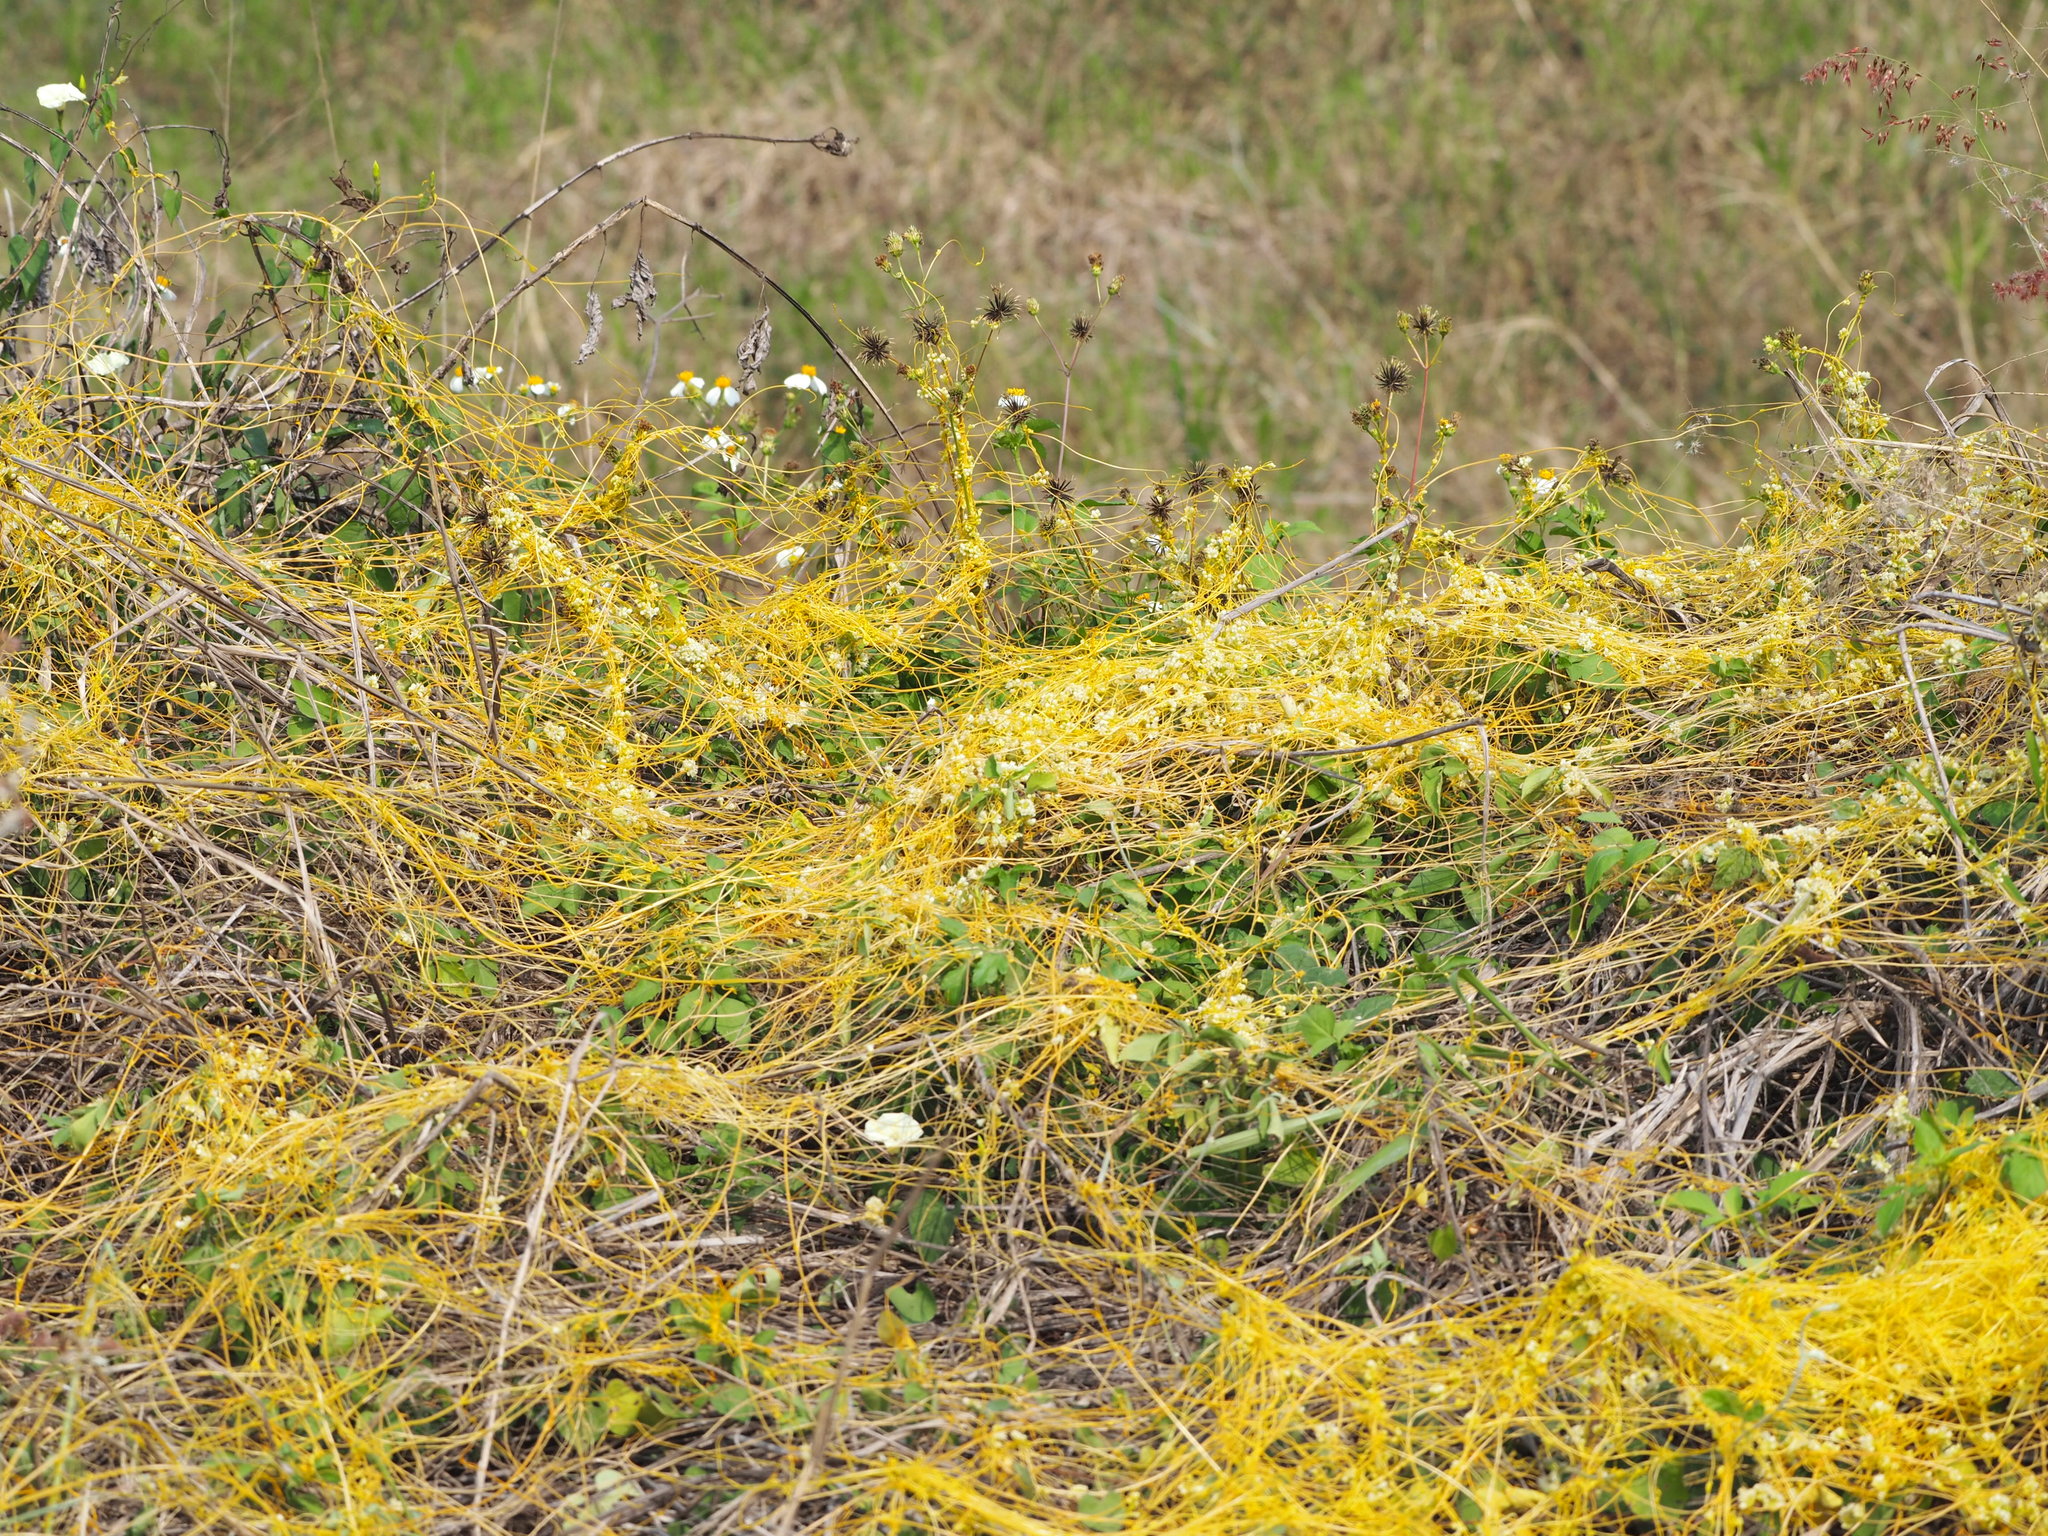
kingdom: Plantae
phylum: Tracheophyta
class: Magnoliopsida
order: Solanales
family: Convolvulaceae
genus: Cuscuta
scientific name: Cuscuta campestris
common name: Yellow dodder
